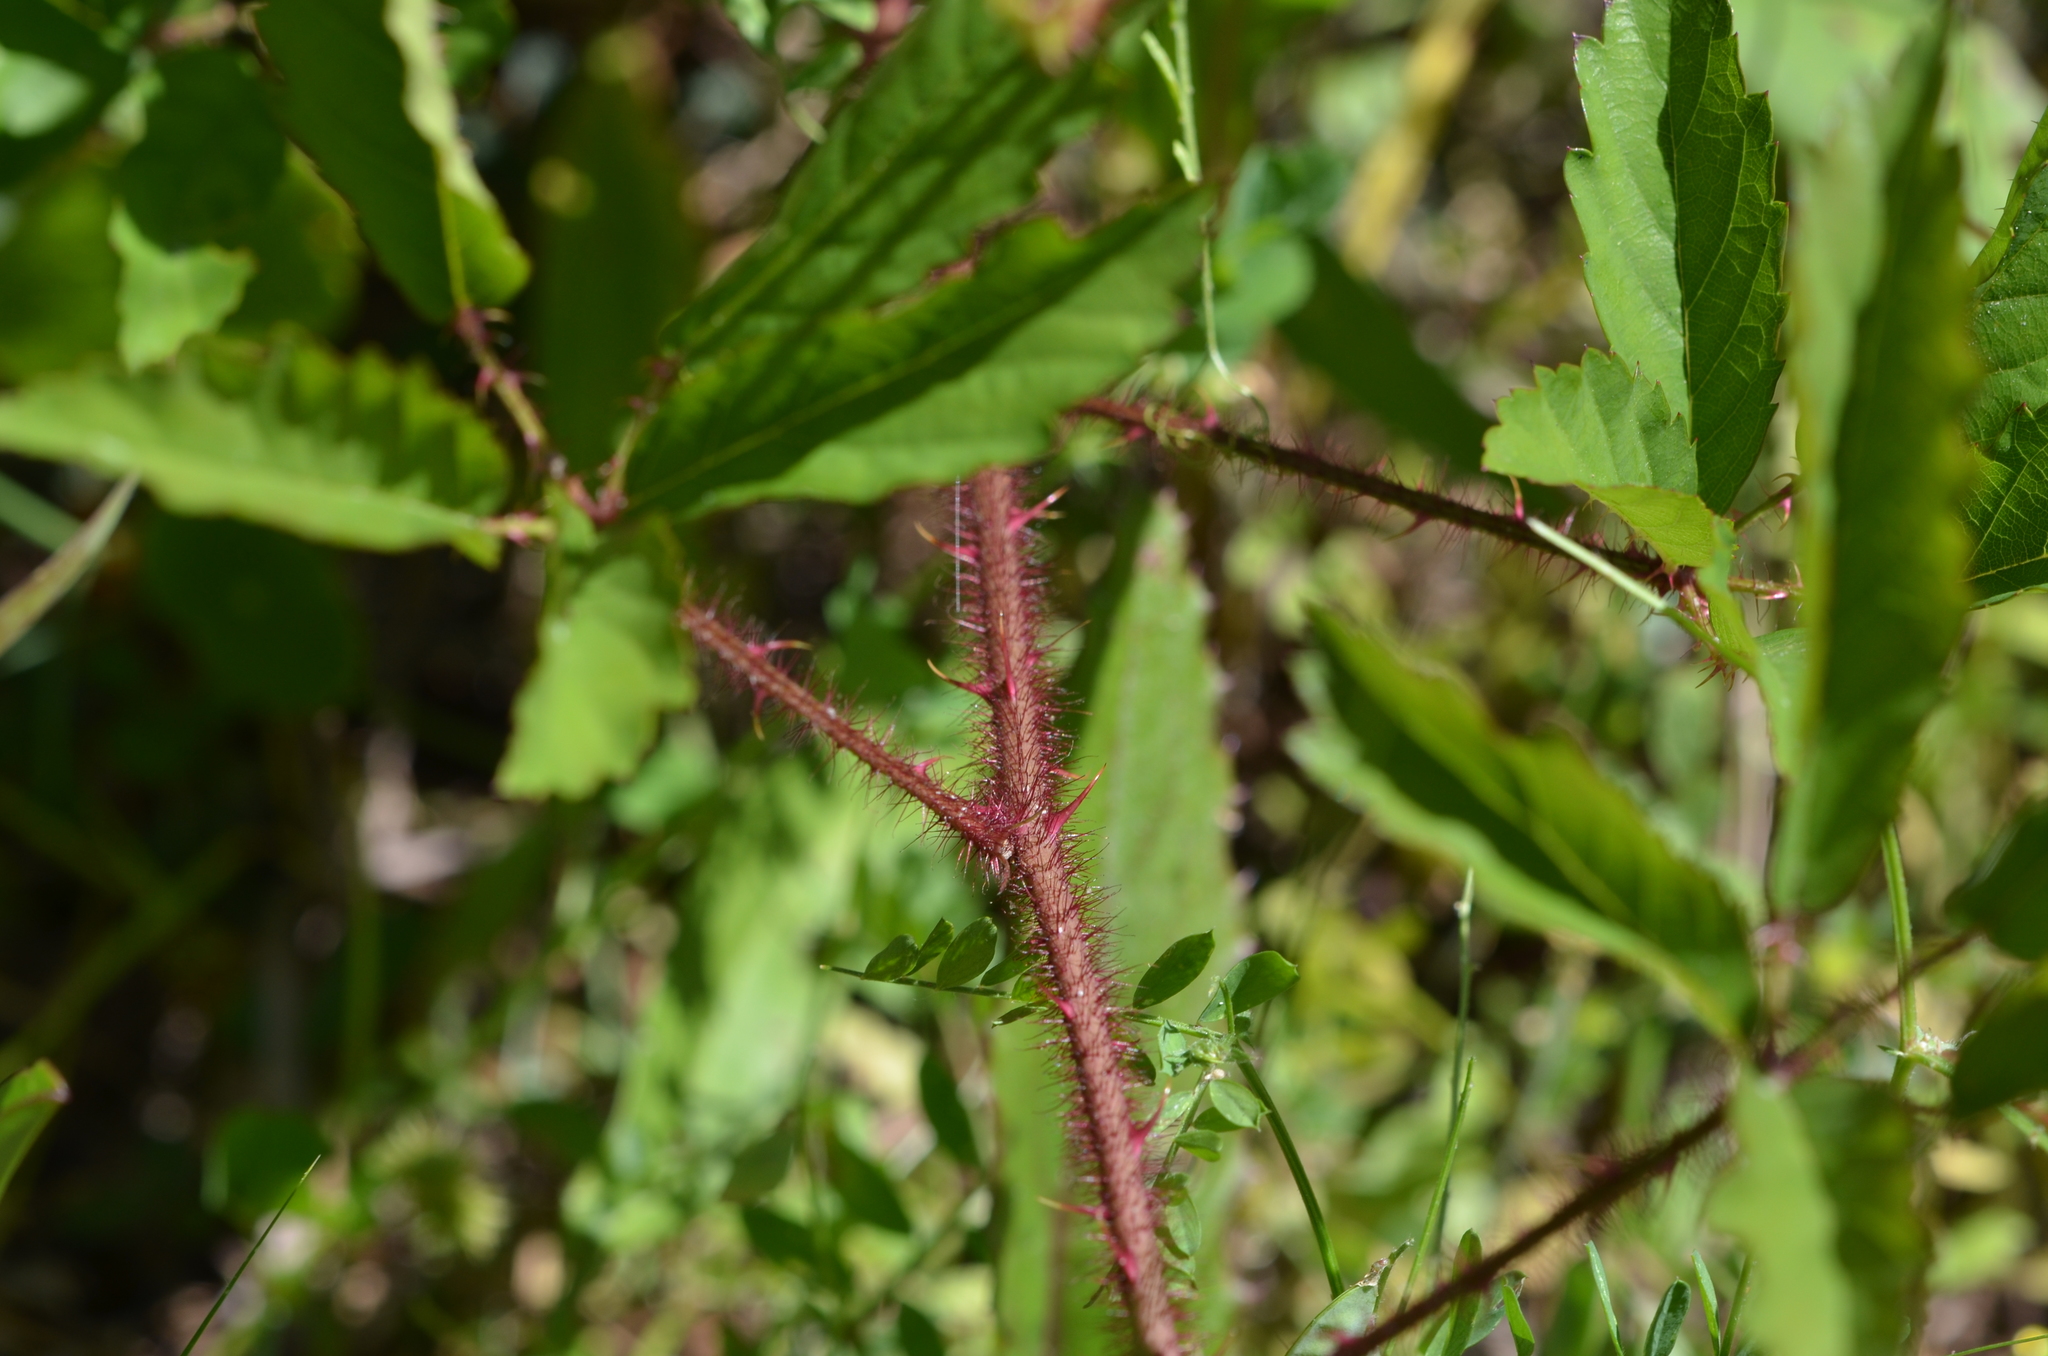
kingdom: Plantae
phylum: Tracheophyta
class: Magnoliopsida
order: Rosales
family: Rosaceae
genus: Rubus
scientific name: Rubus trivialis
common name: Southern dewberry
